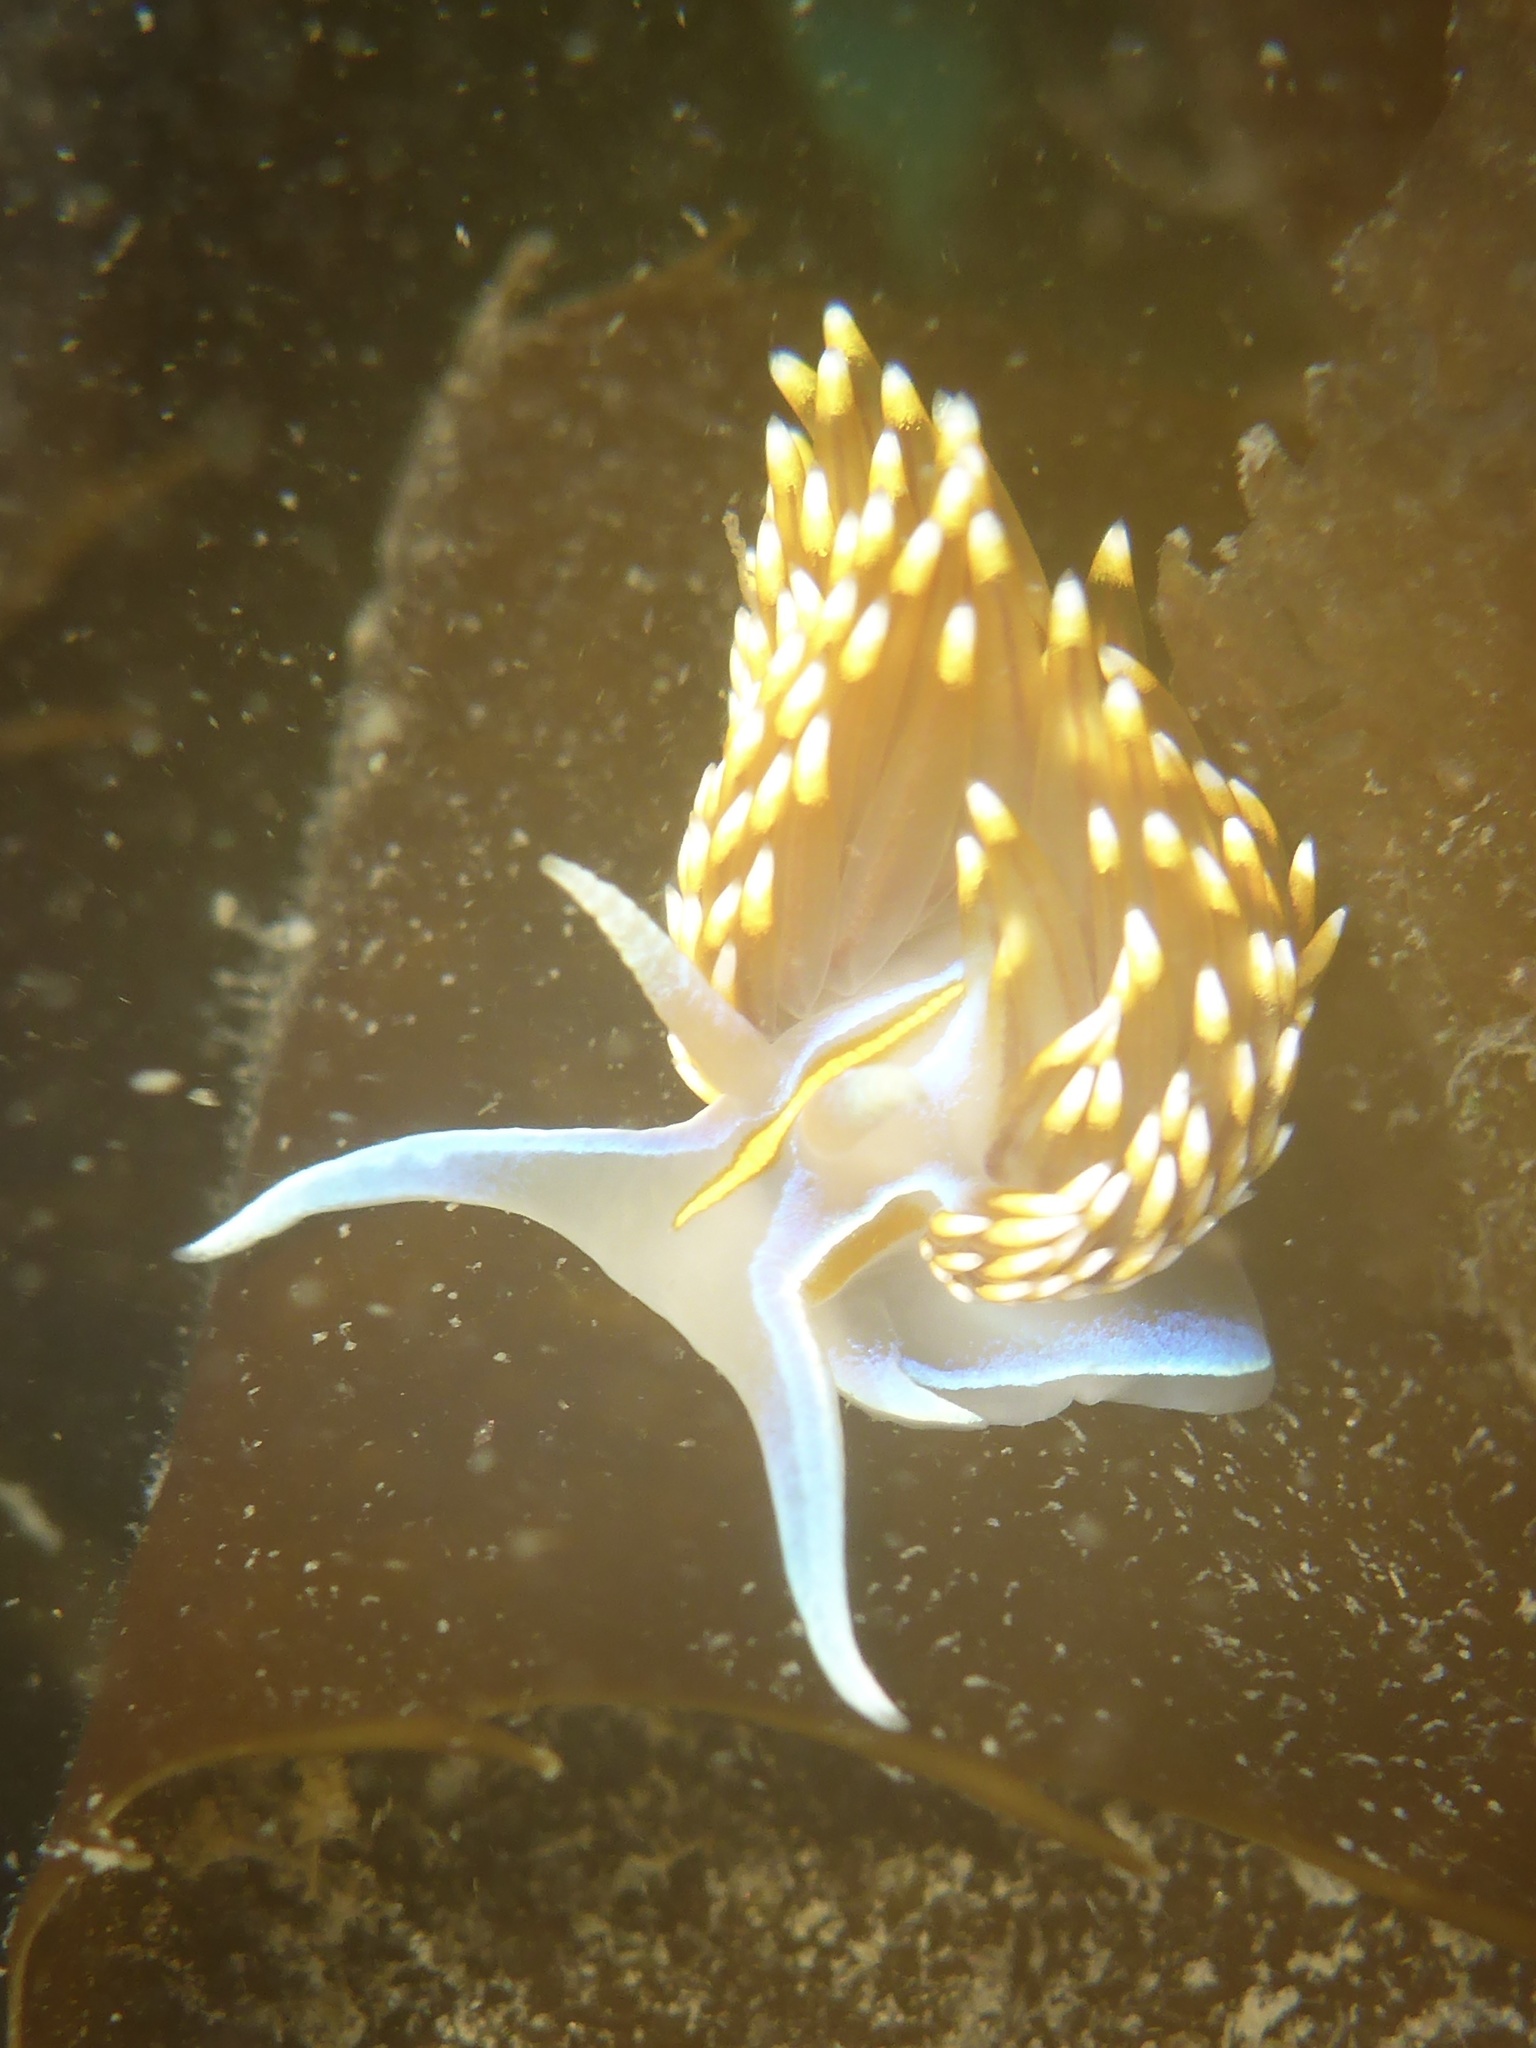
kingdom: Animalia
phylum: Mollusca
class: Gastropoda
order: Nudibranchia
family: Myrrhinidae
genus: Hermissenda
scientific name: Hermissenda opalescens
